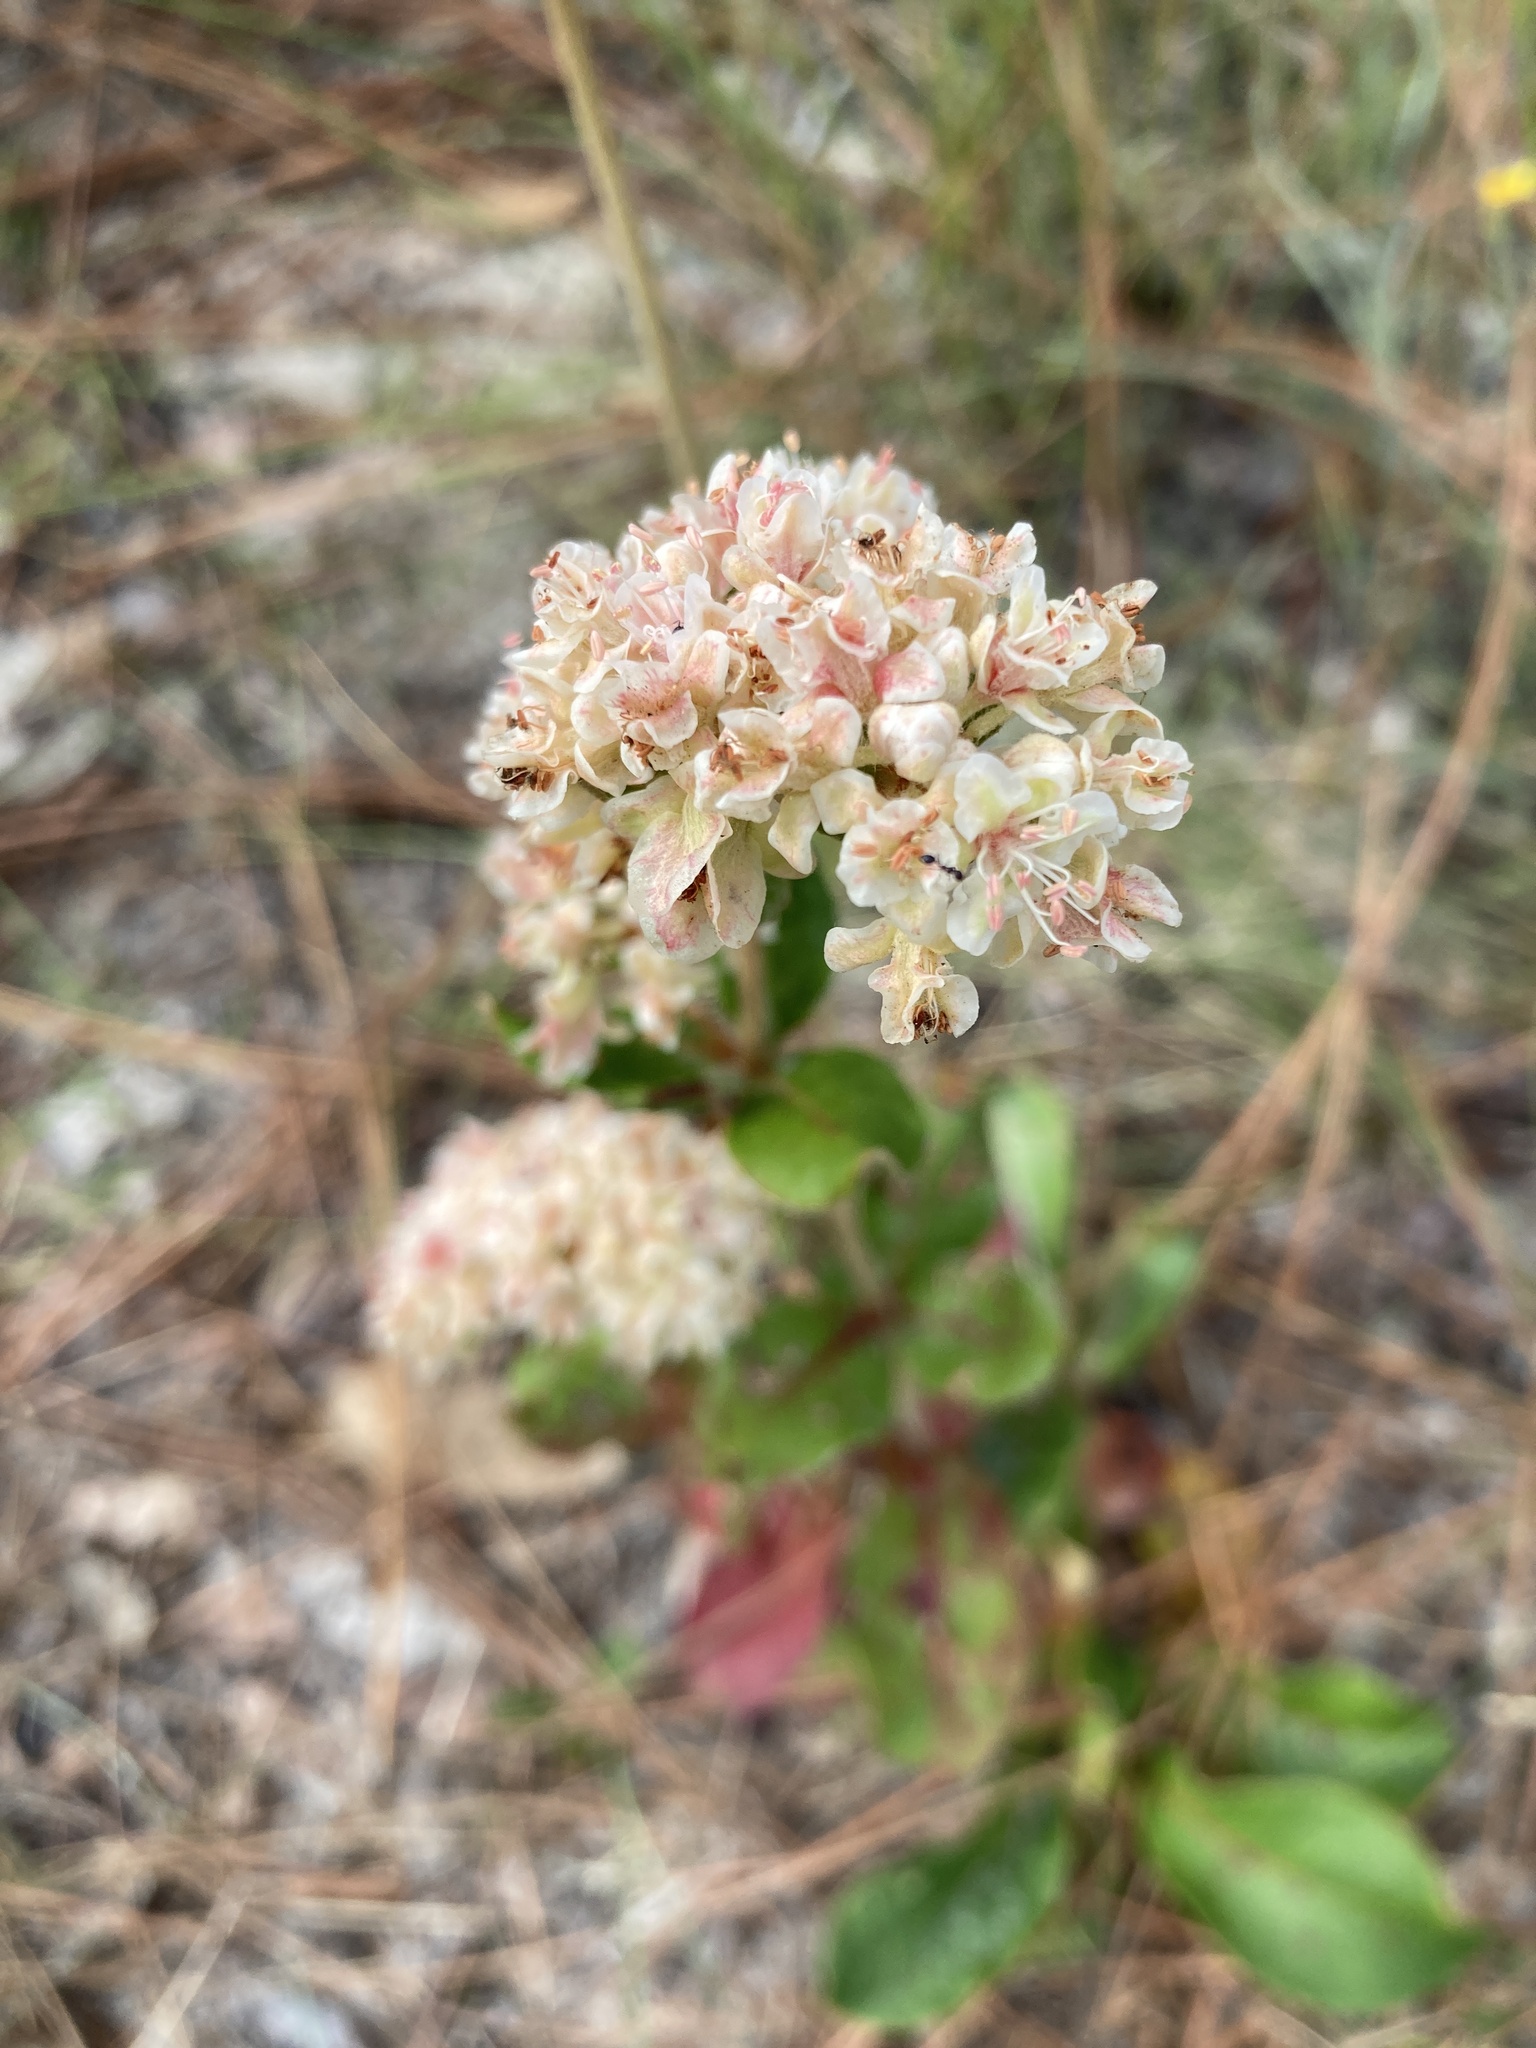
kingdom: Plantae
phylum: Tracheophyta
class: Magnoliopsida
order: Caryophyllales
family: Polygonaceae
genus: Eriogonum
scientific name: Eriogonum tomentosum
